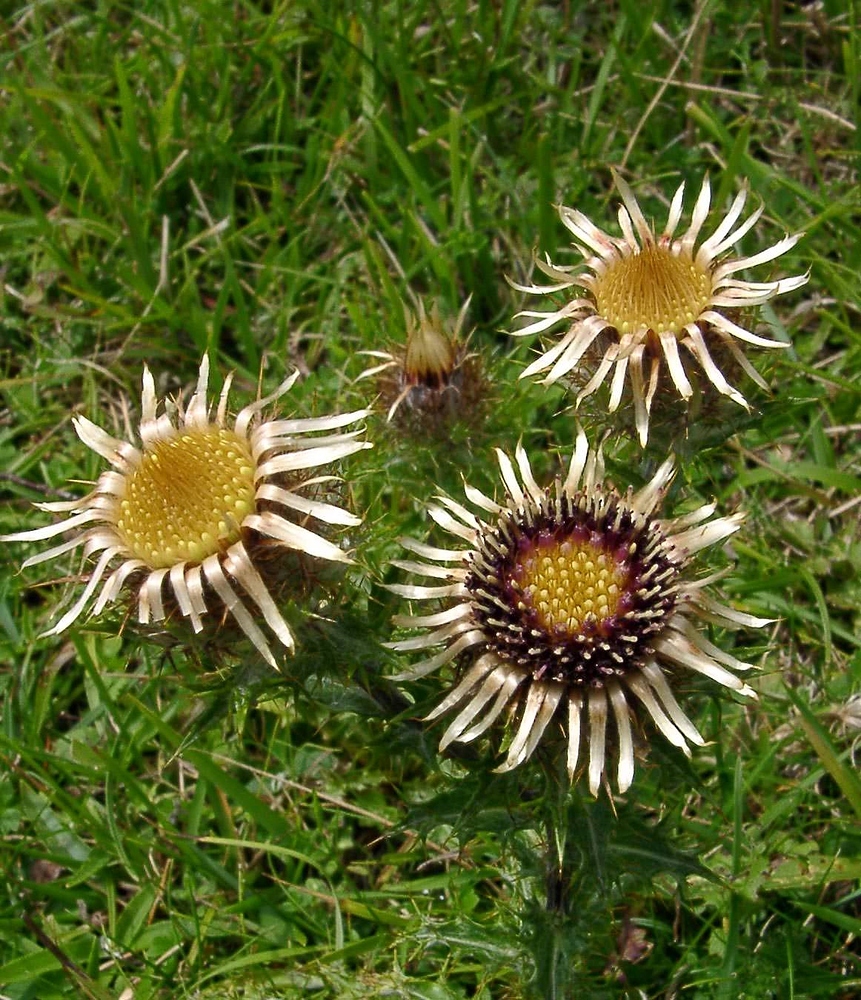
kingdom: Plantae
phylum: Tracheophyta
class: Magnoliopsida
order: Asterales
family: Asteraceae
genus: Carlina
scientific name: Carlina vulgaris
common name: Carline thistle
